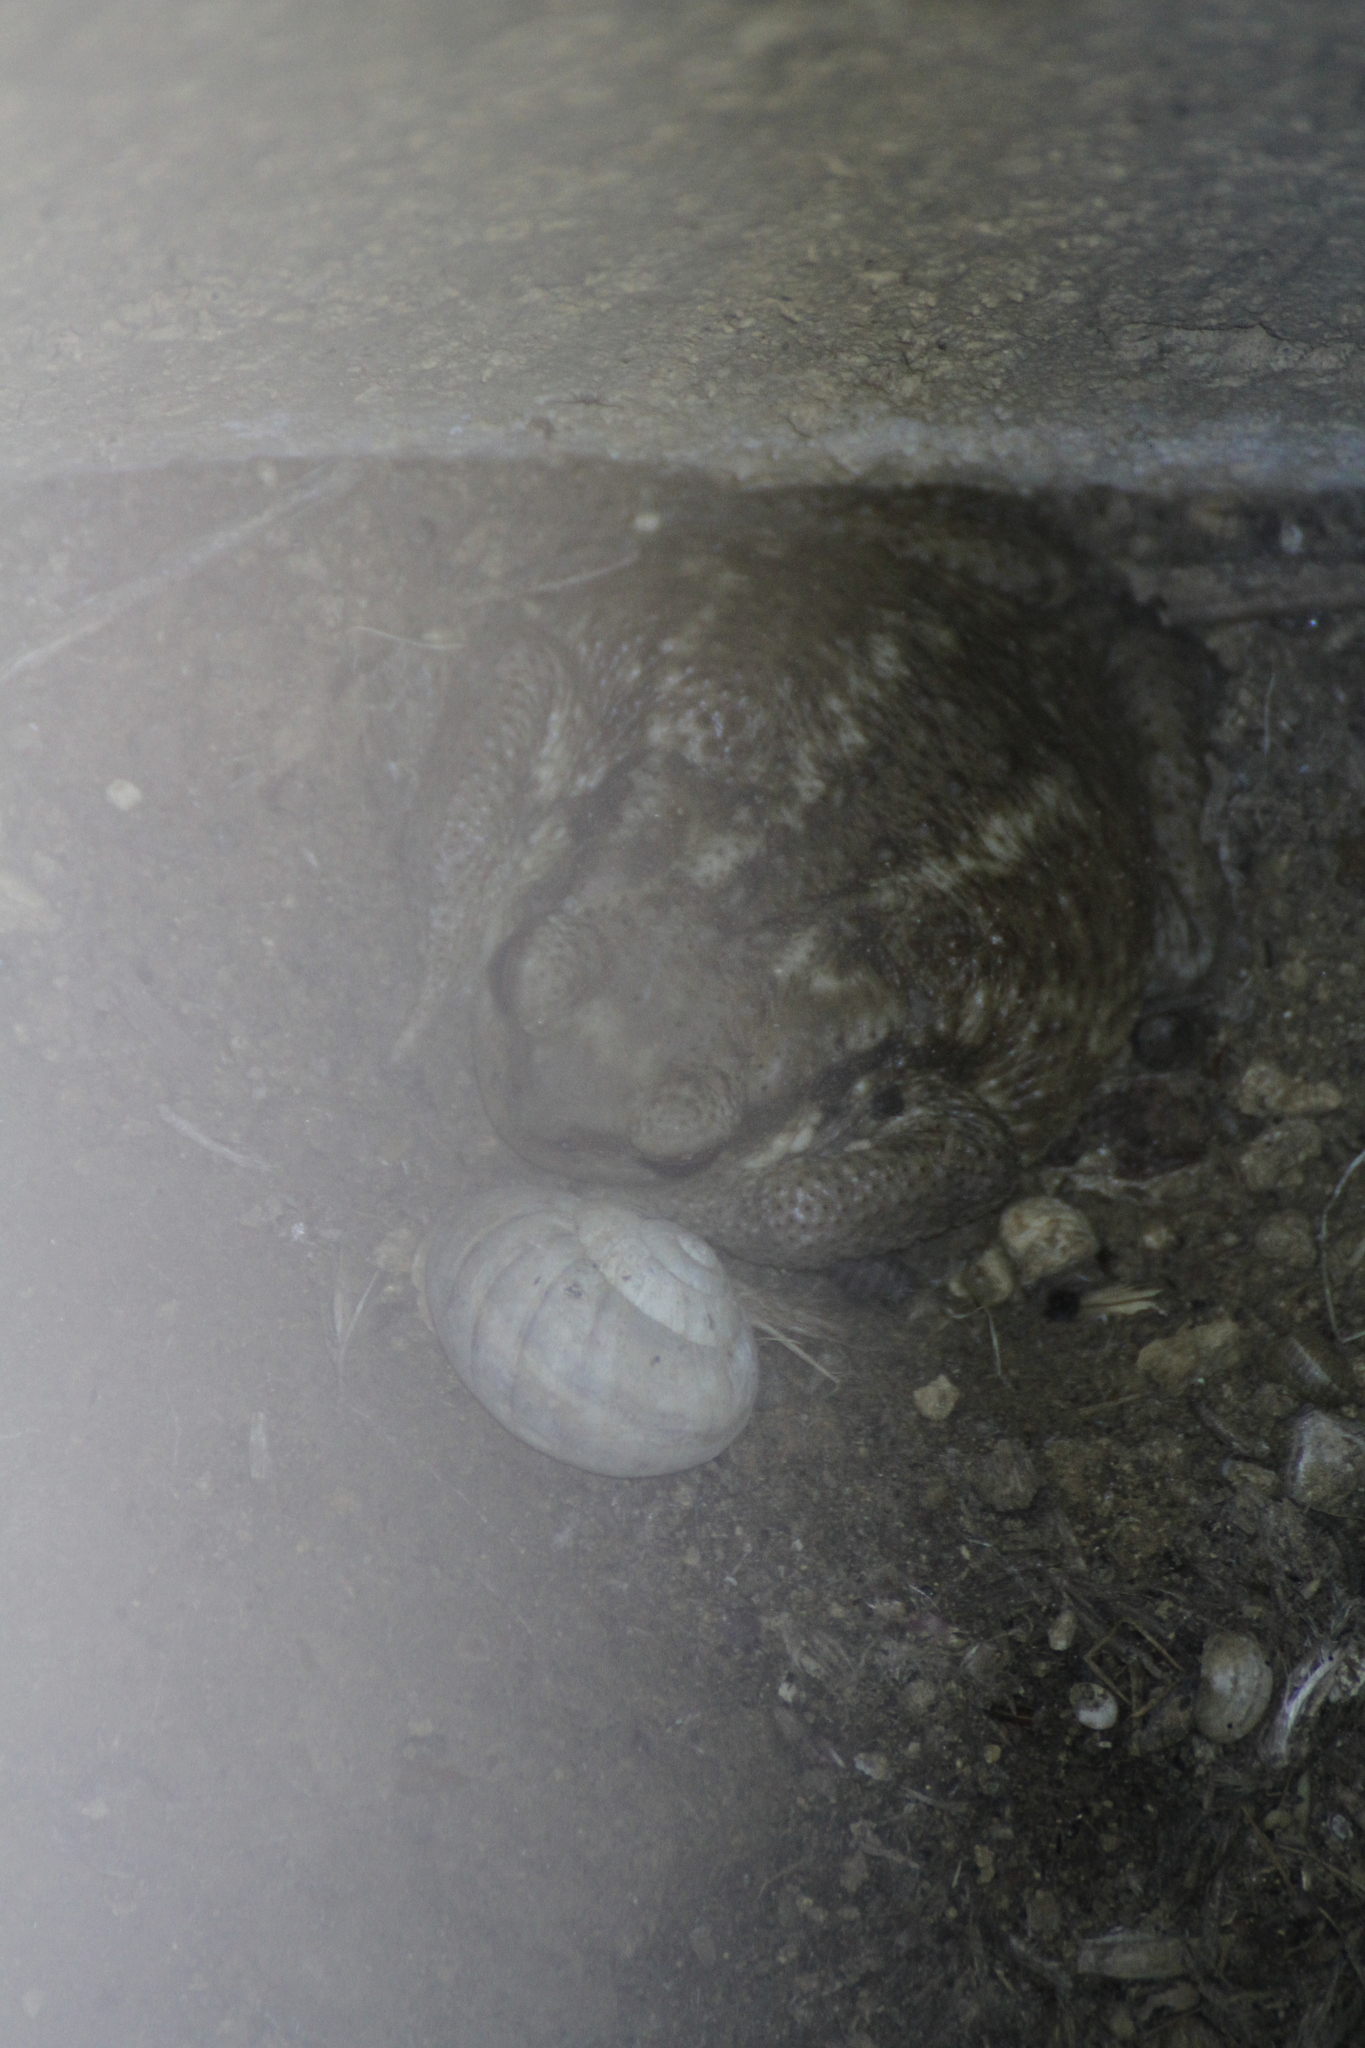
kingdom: Animalia
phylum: Chordata
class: Amphibia
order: Anura
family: Bufonidae
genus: Bufo
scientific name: Bufo spinosus
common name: Western common toad
